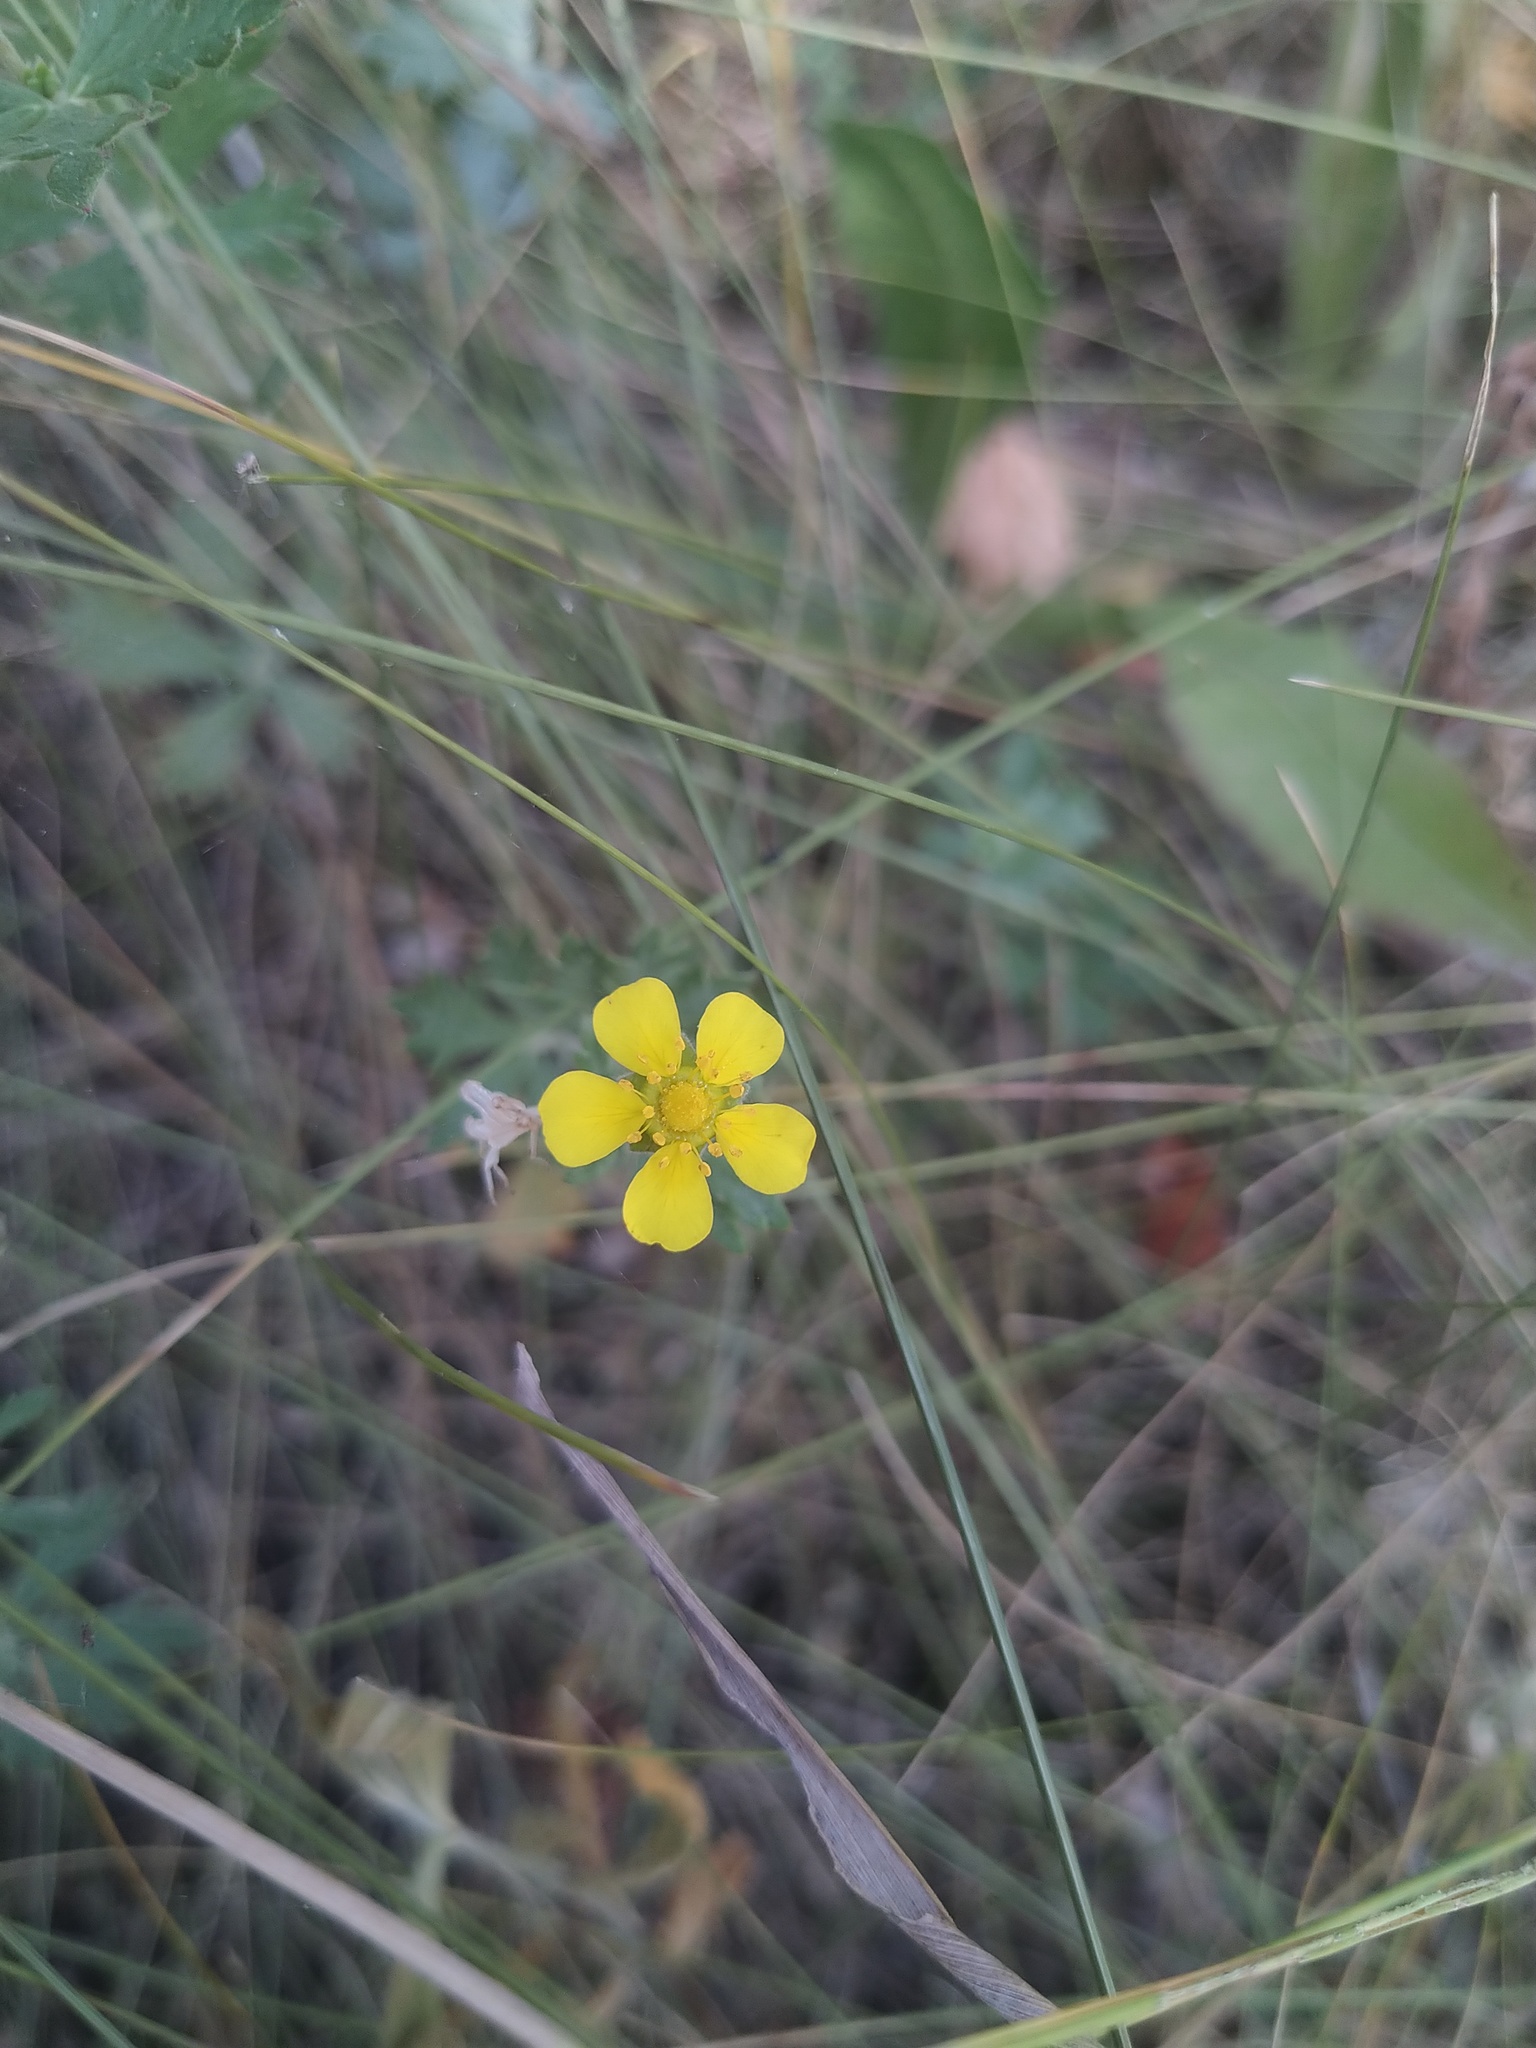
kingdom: Plantae
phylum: Tracheophyta
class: Magnoliopsida
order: Rosales
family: Rosaceae
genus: Potentilla
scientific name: Potentilla argentea
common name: Hoary cinquefoil
